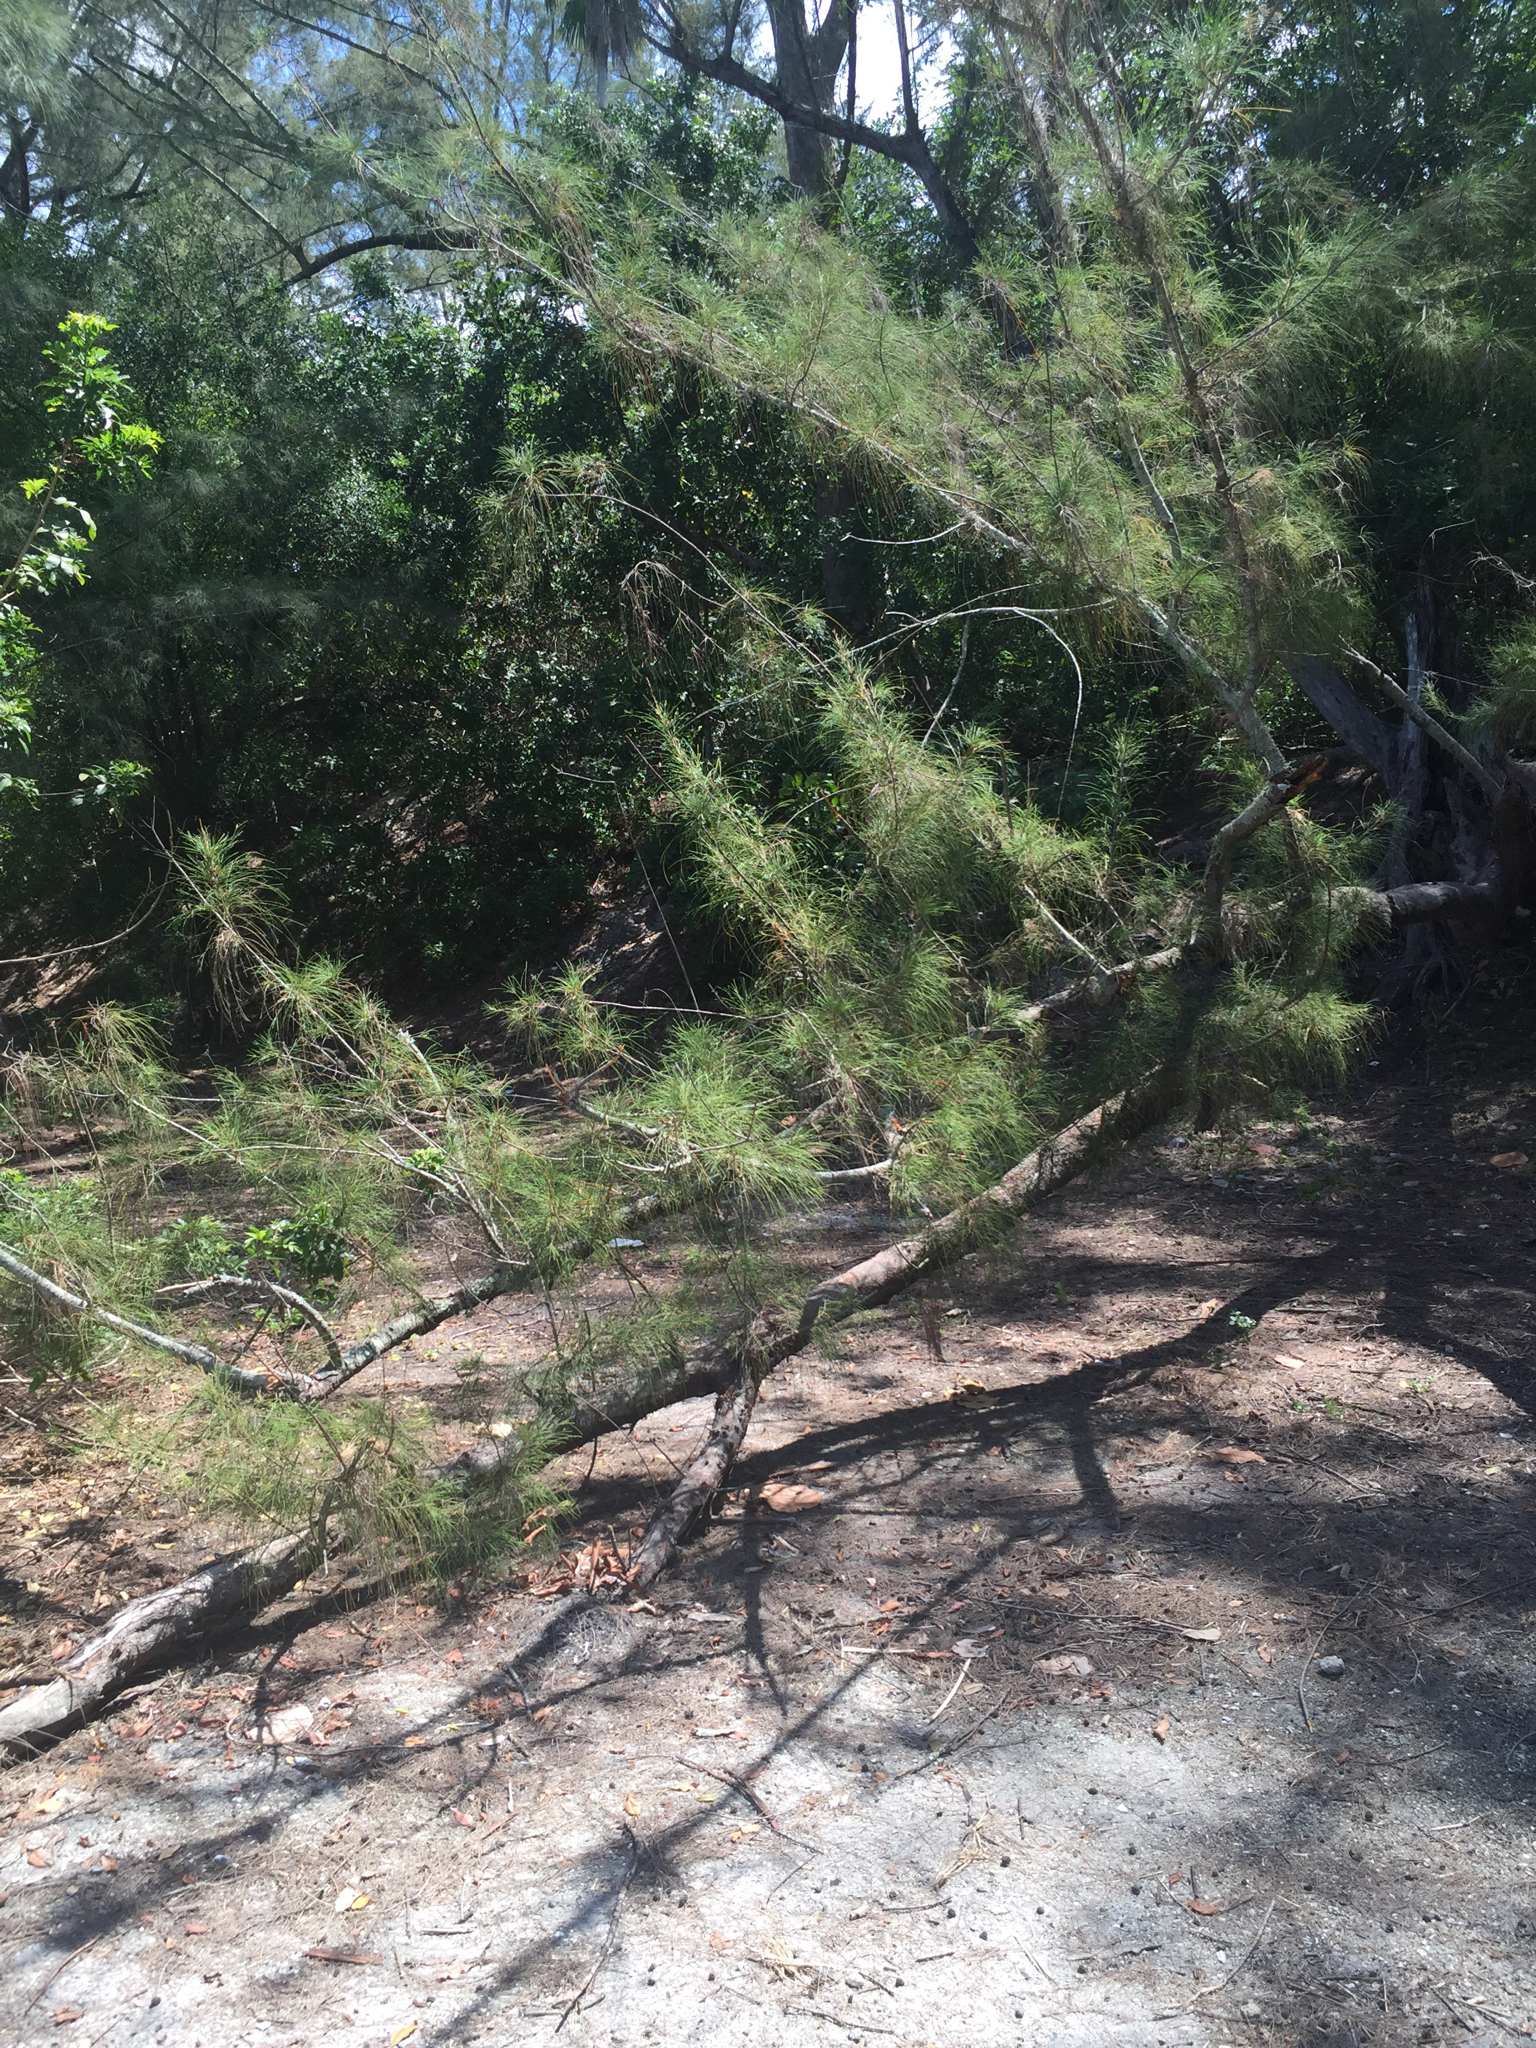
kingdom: Plantae
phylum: Tracheophyta
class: Magnoliopsida
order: Fagales
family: Casuarinaceae
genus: Casuarina
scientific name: Casuarina equisetifolia
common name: Beach sheoak
